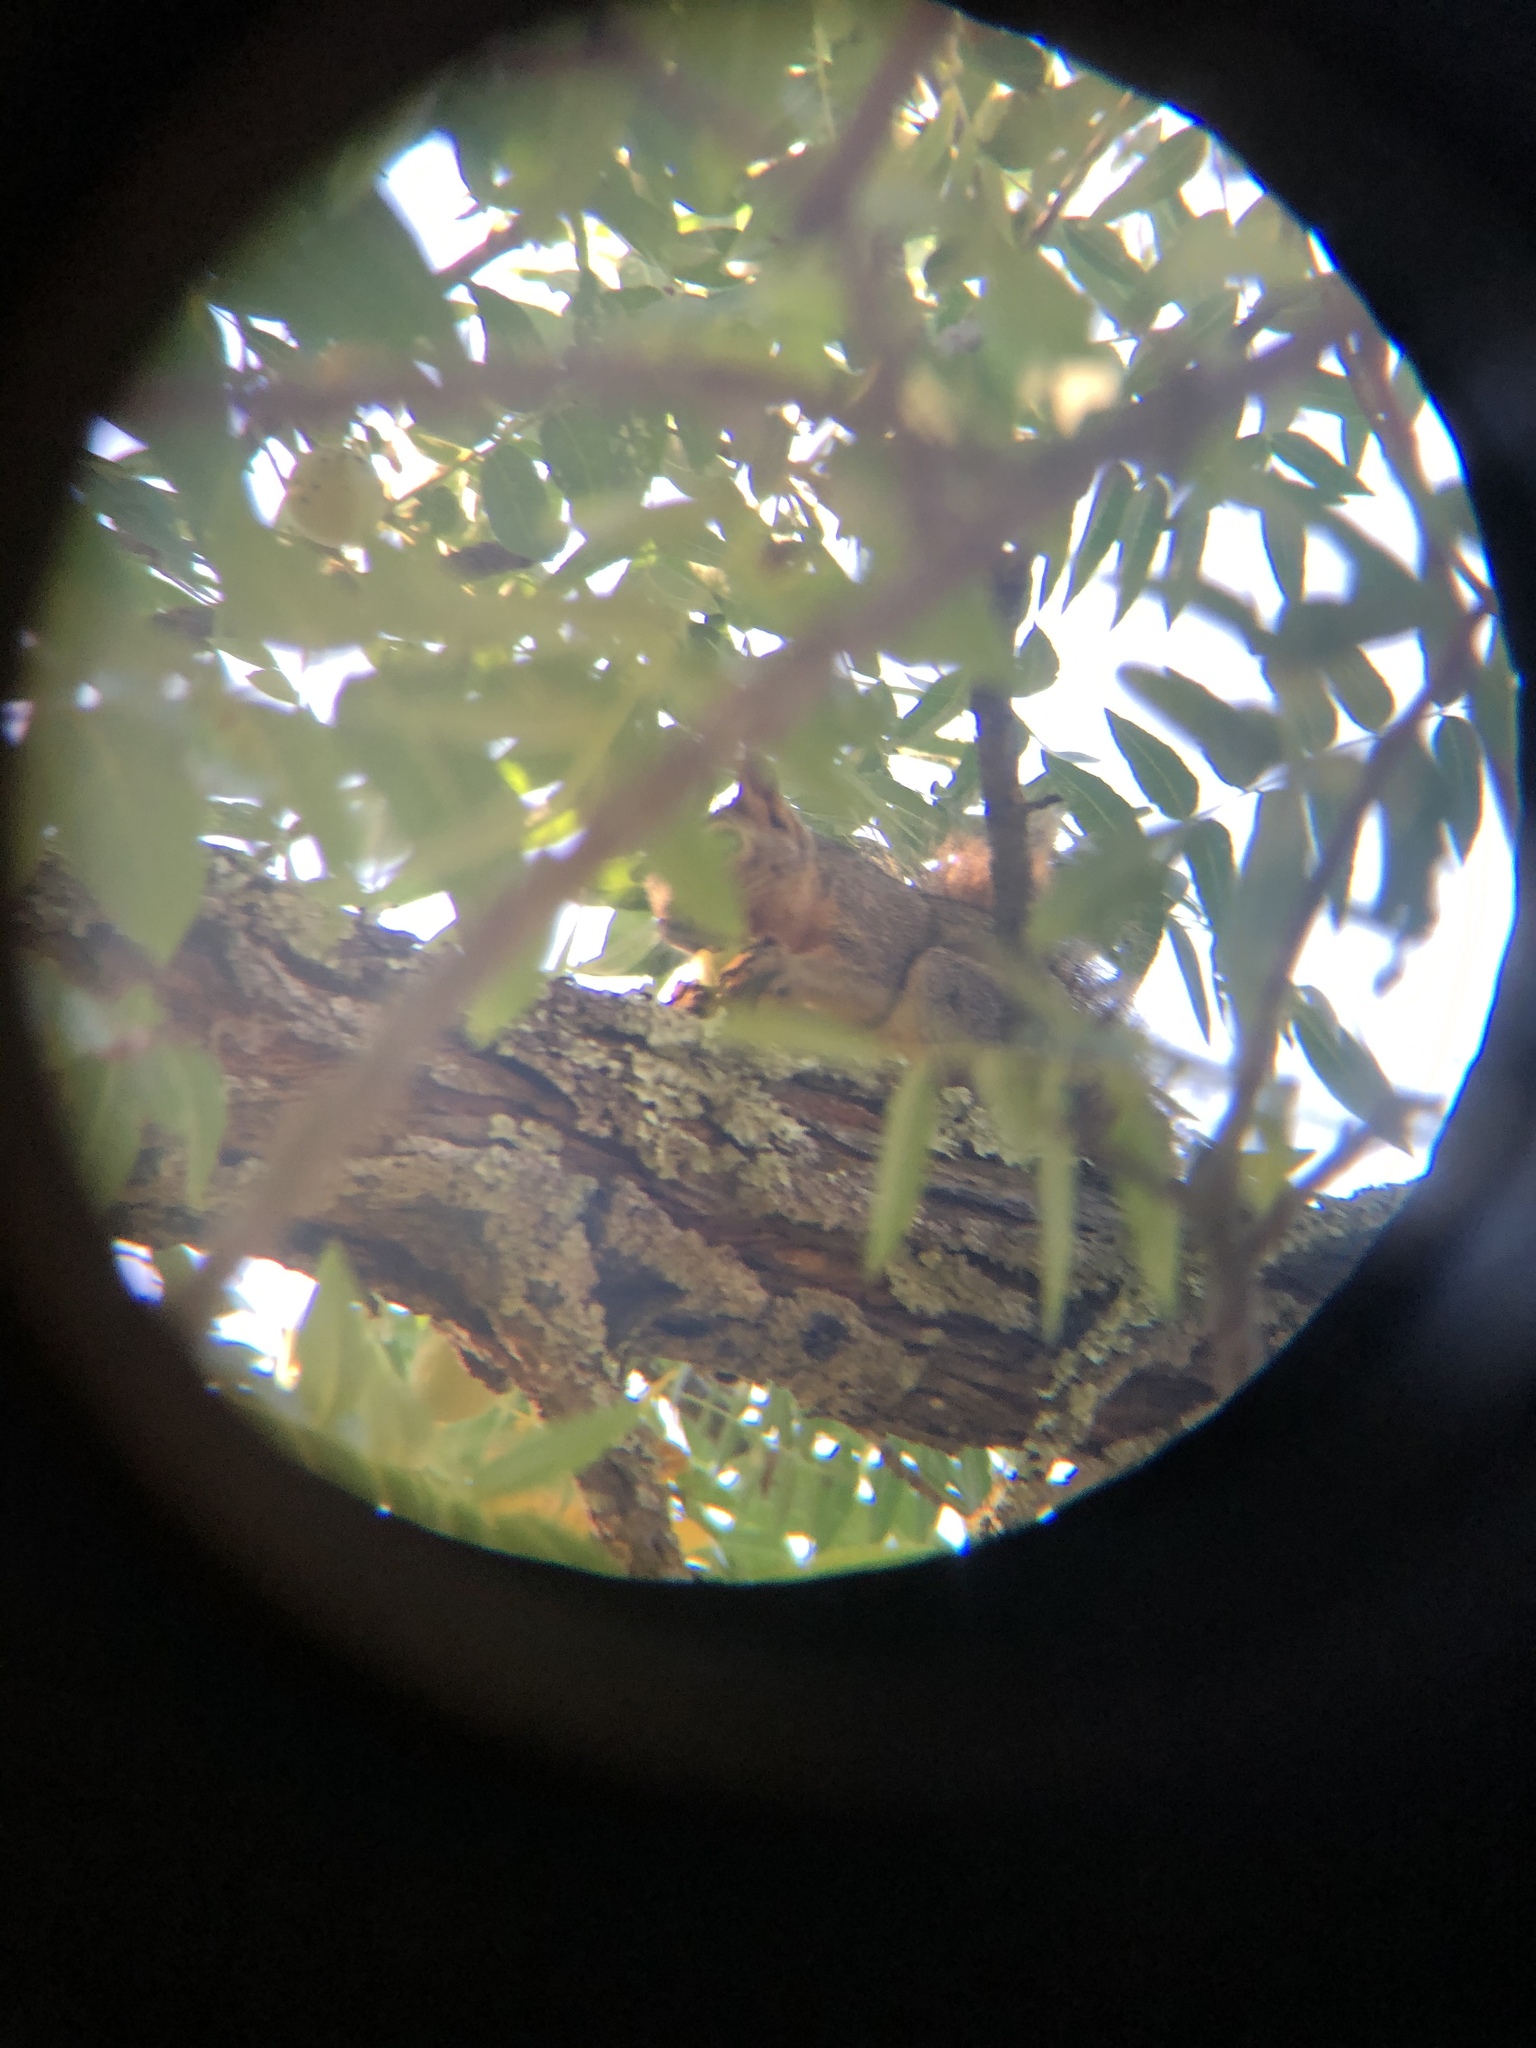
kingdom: Animalia
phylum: Chordata
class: Mammalia
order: Rodentia
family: Sciuridae
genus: Sciurus
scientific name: Sciurus niger
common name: Fox squirrel
